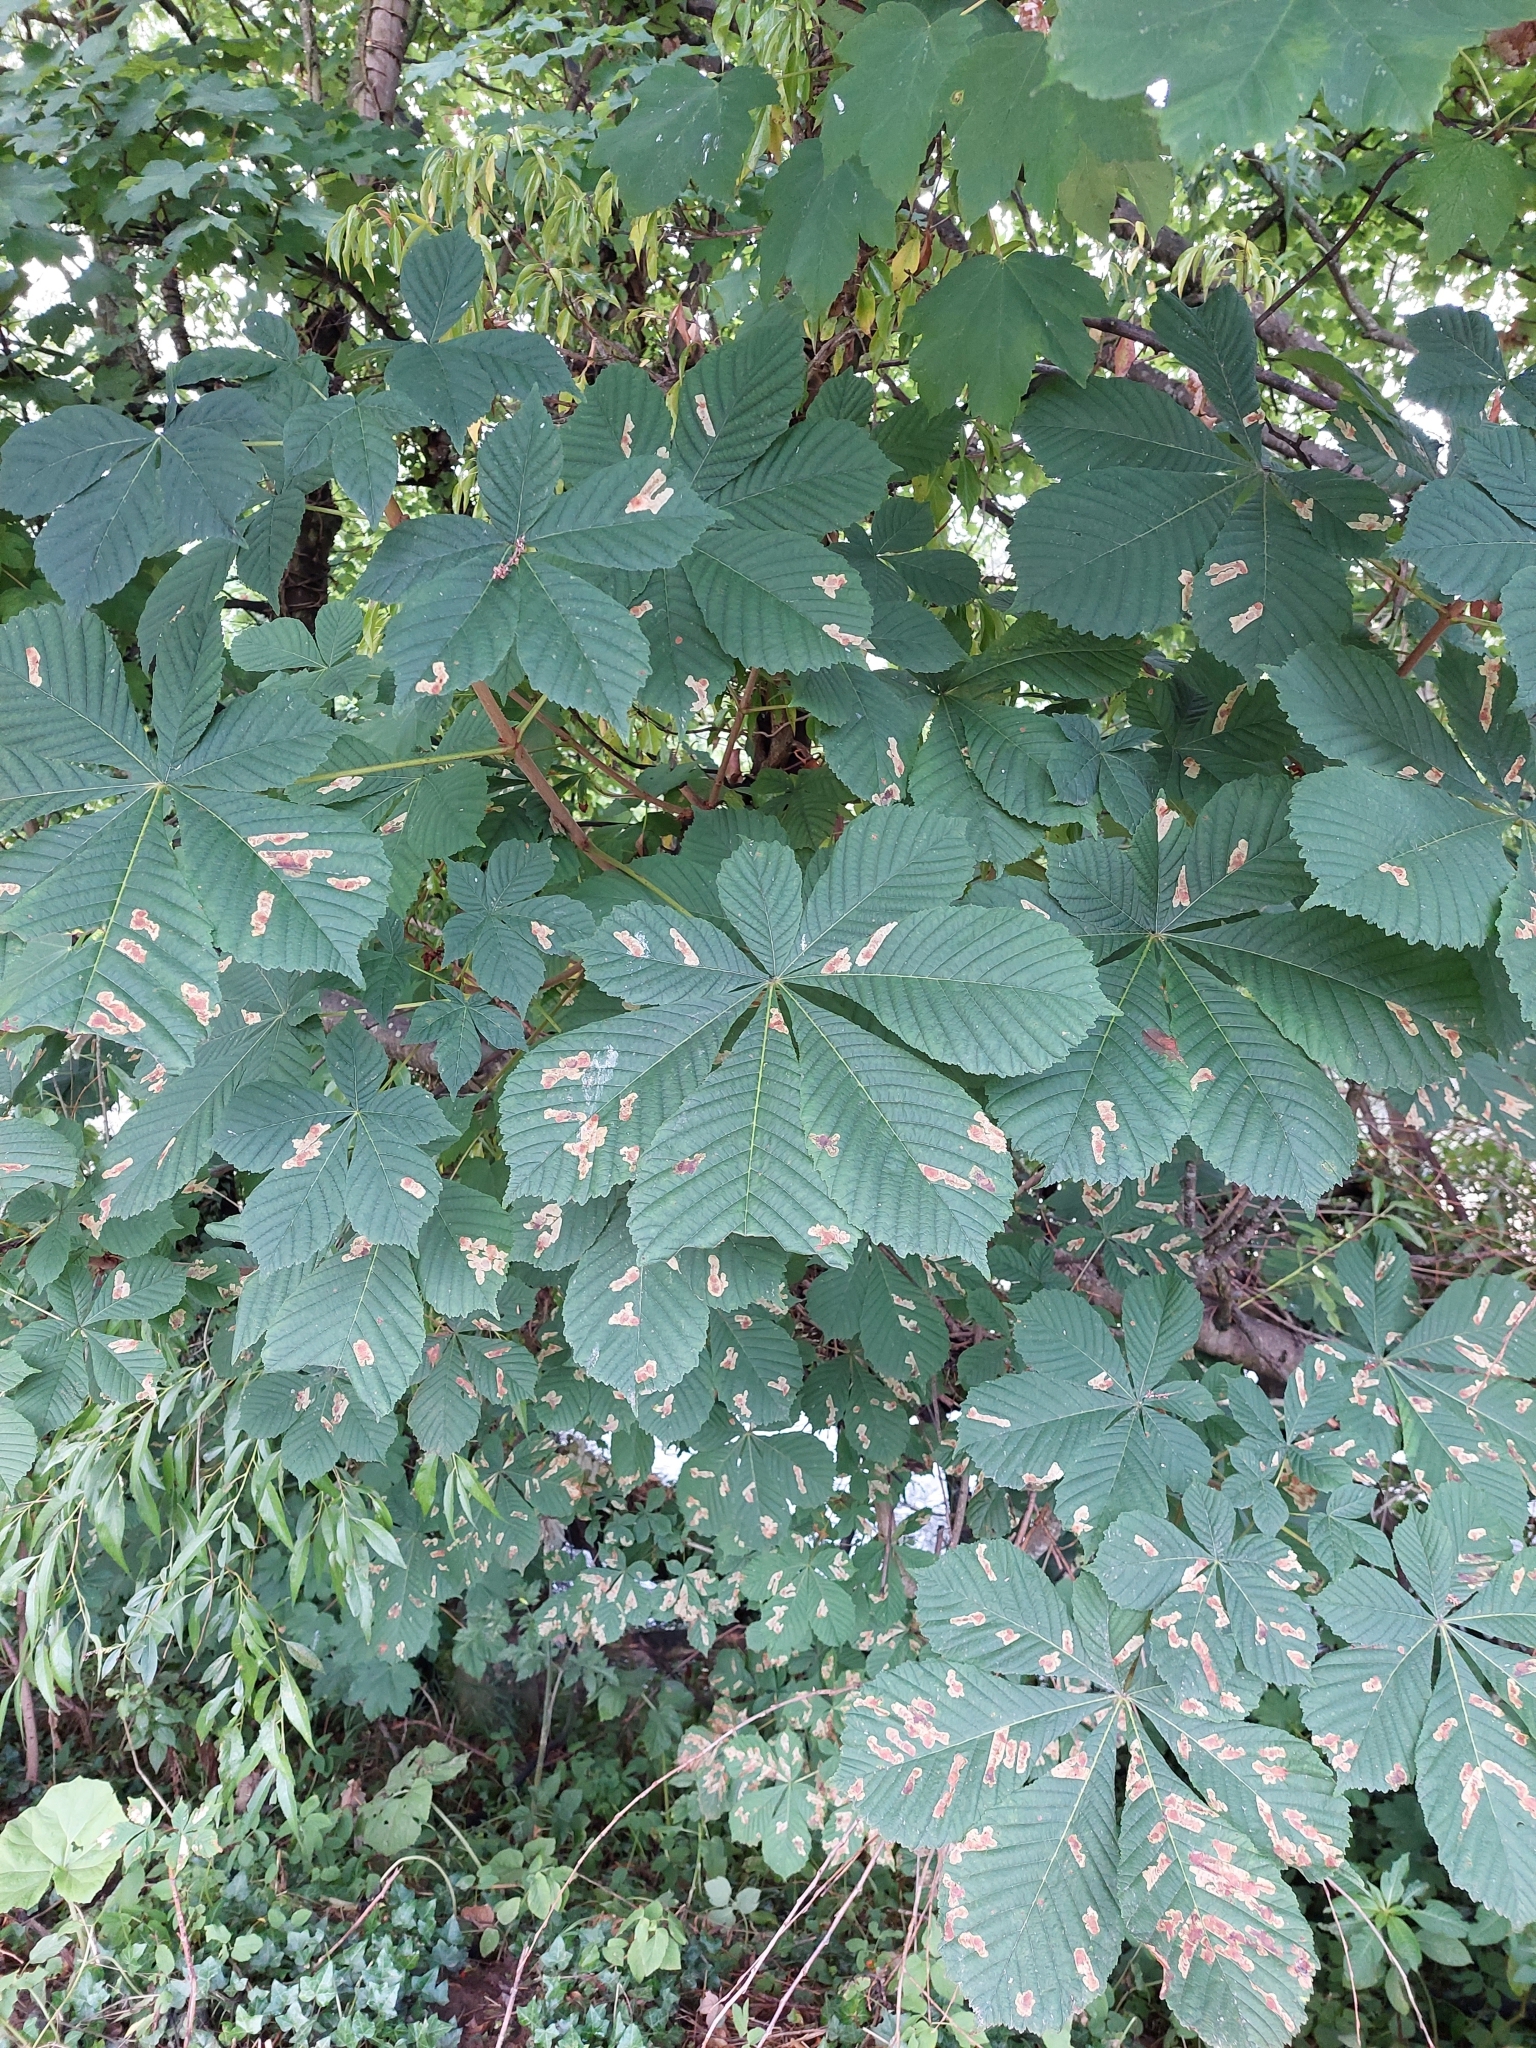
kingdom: Plantae
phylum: Tracheophyta
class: Magnoliopsida
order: Sapindales
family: Sapindaceae
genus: Aesculus
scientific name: Aesculus hippocastanum
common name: Horse-chestnut
